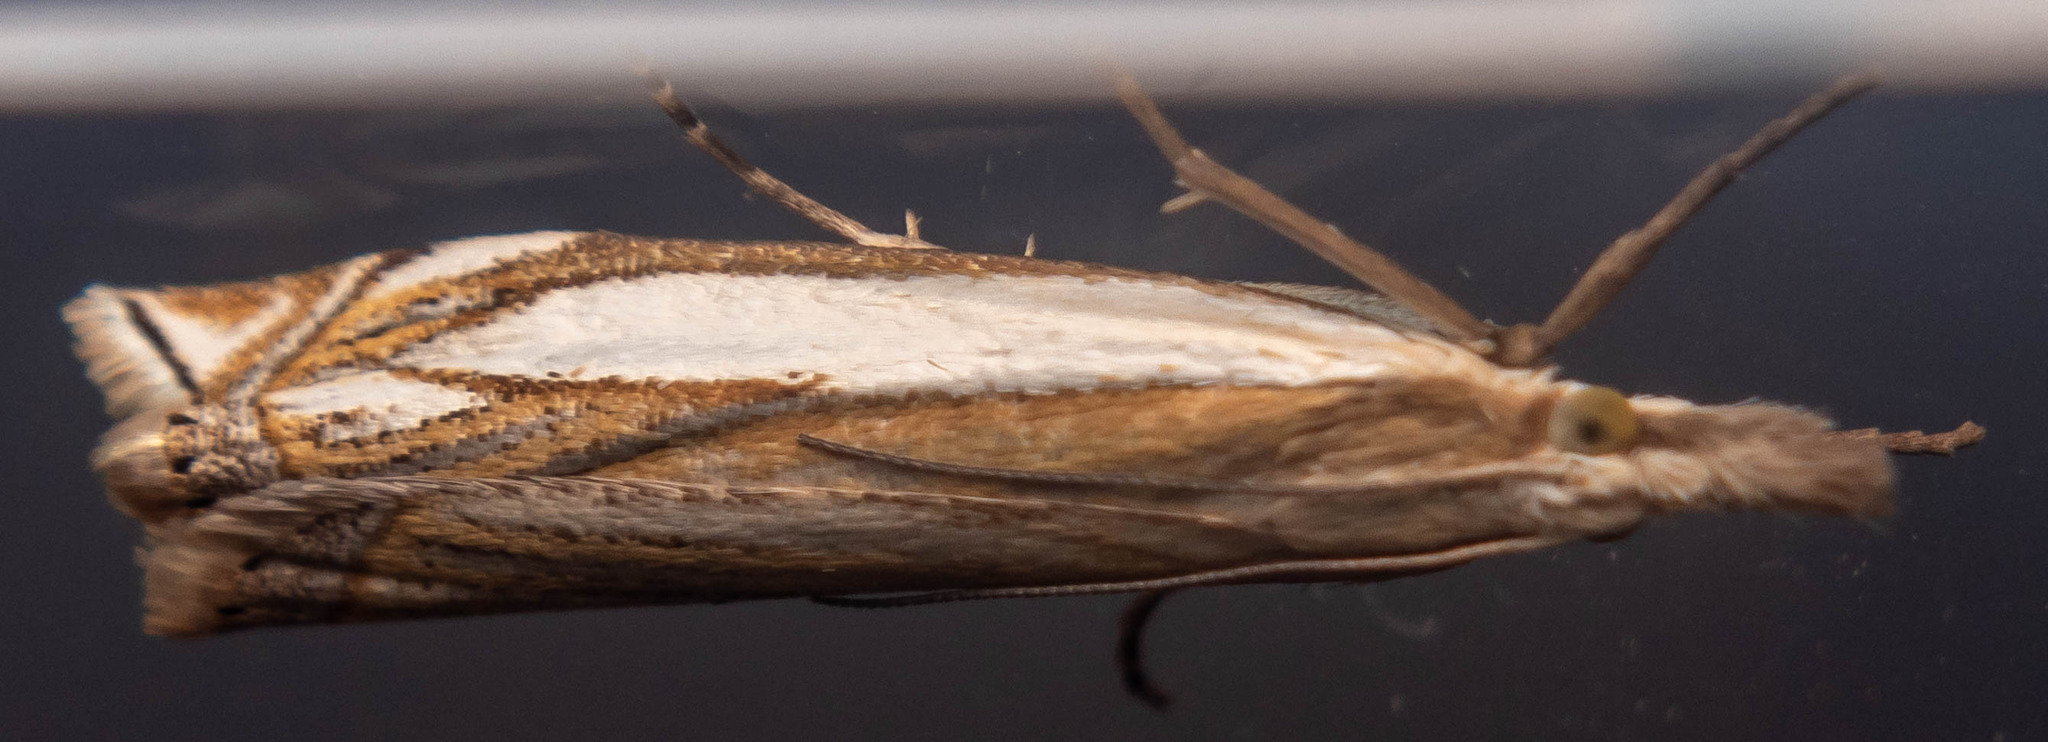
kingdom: Animalia
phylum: Arthropoda
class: Insecta
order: Lepidoptera
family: Crambidae
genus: Crambus
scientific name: Crambus pascuella
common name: Inlaid grass-veneer
